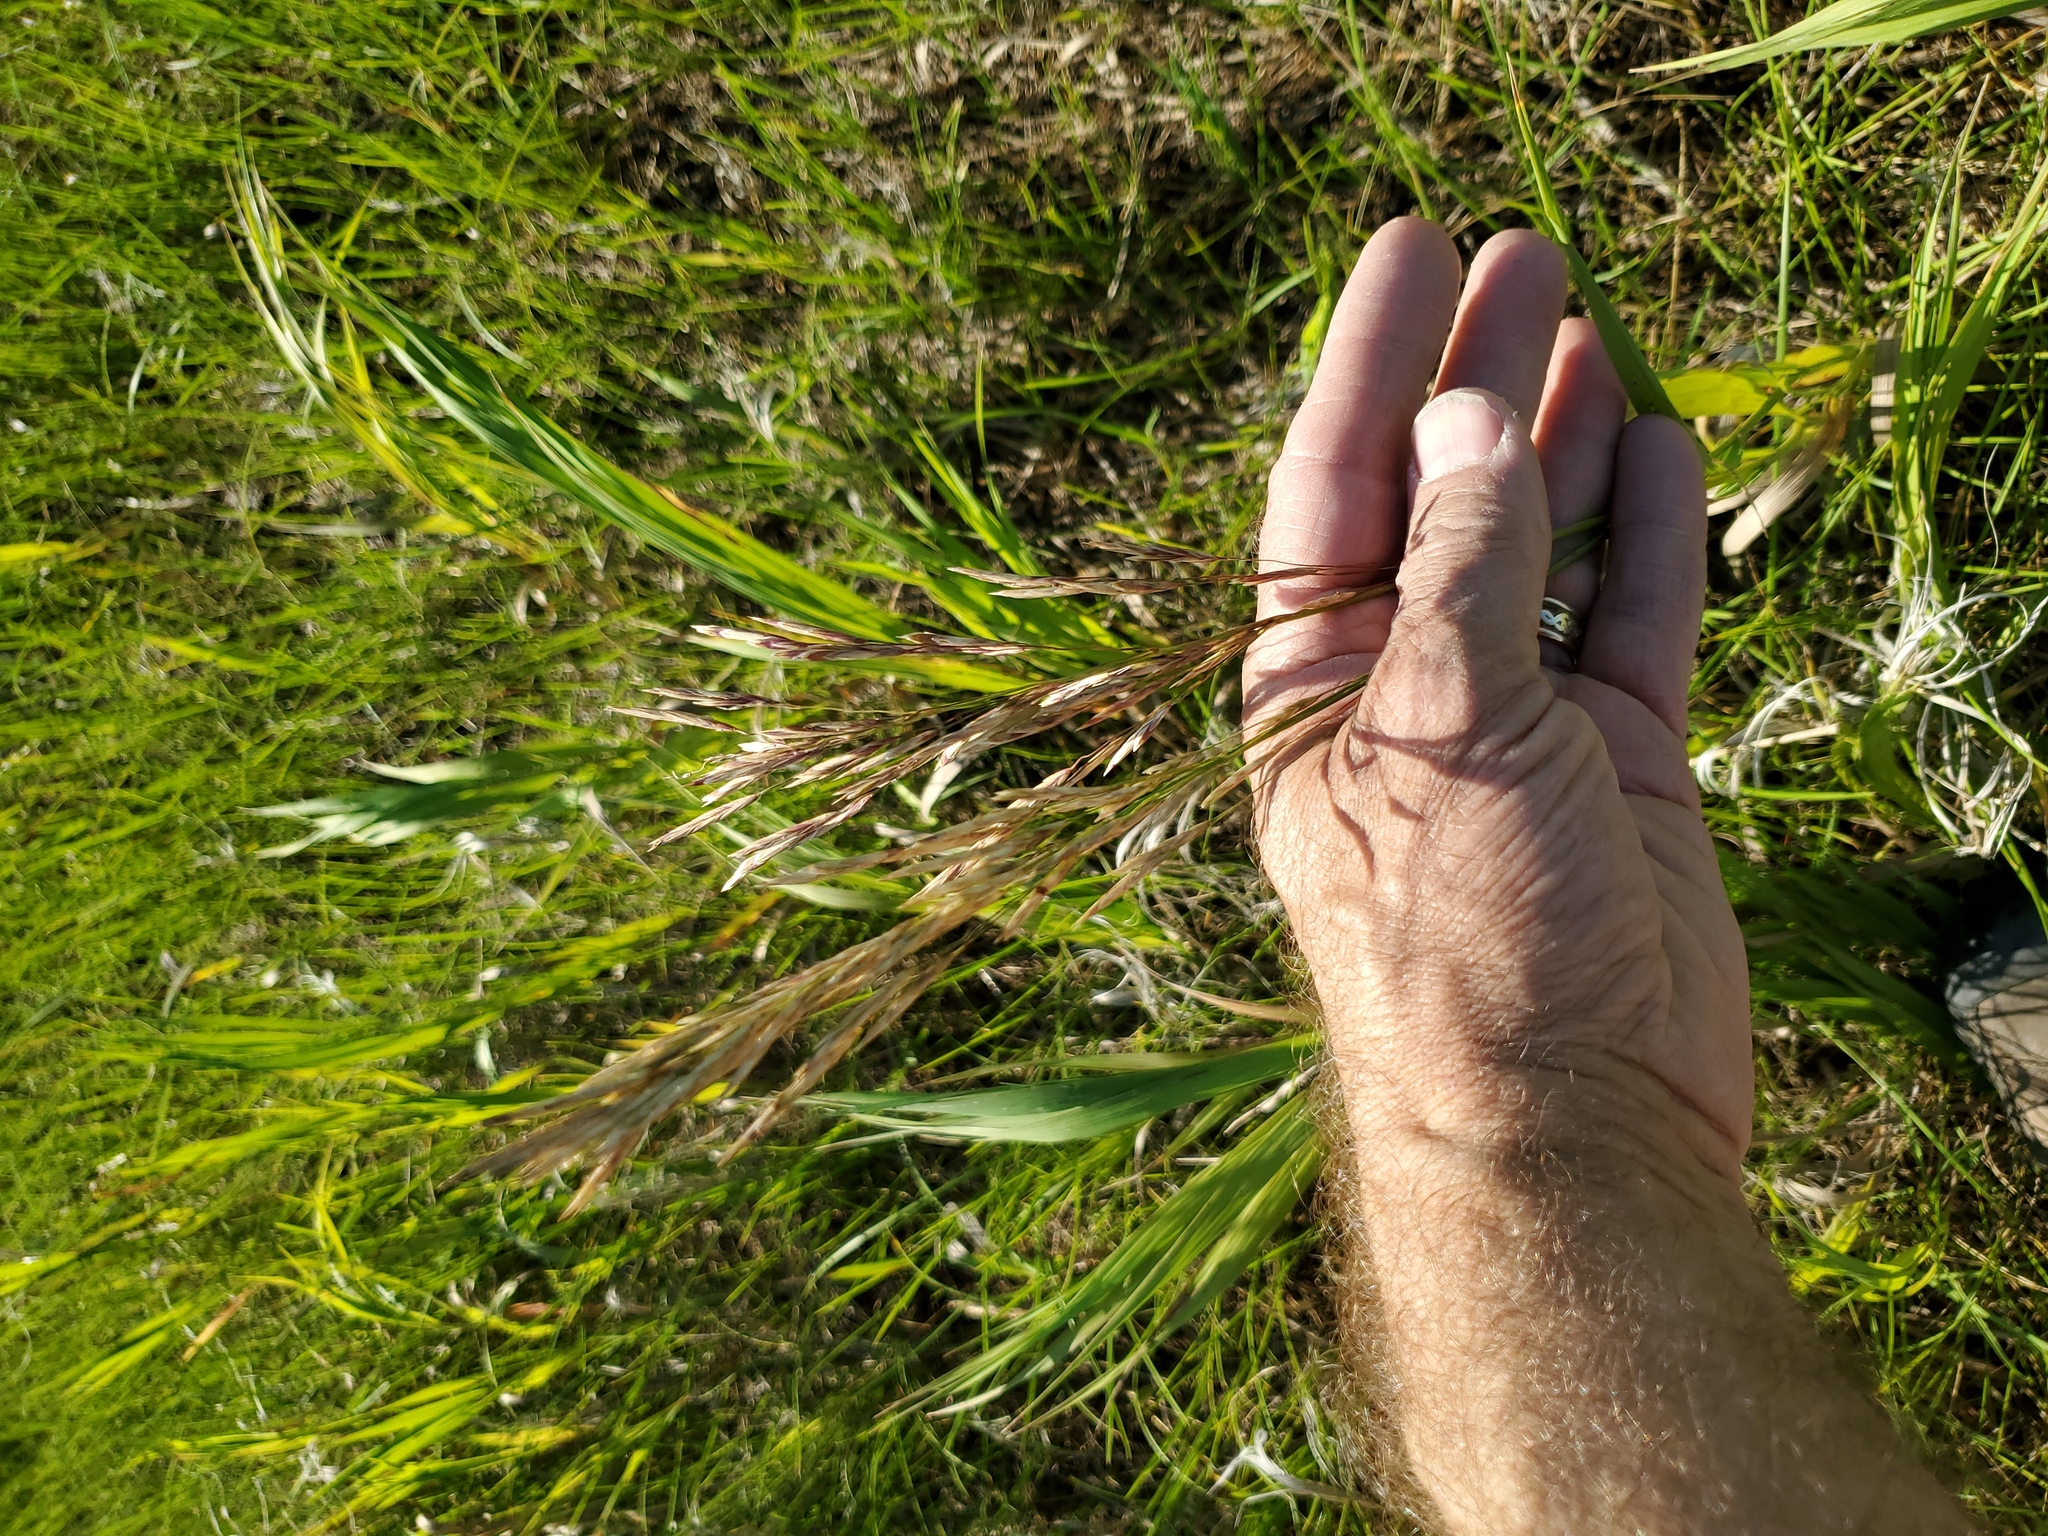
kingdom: Plantae
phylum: Tracheophyta
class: Liliopsida
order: Poales
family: Poaceae
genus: Bromus
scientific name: Bromus inermis
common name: Smooth brome
